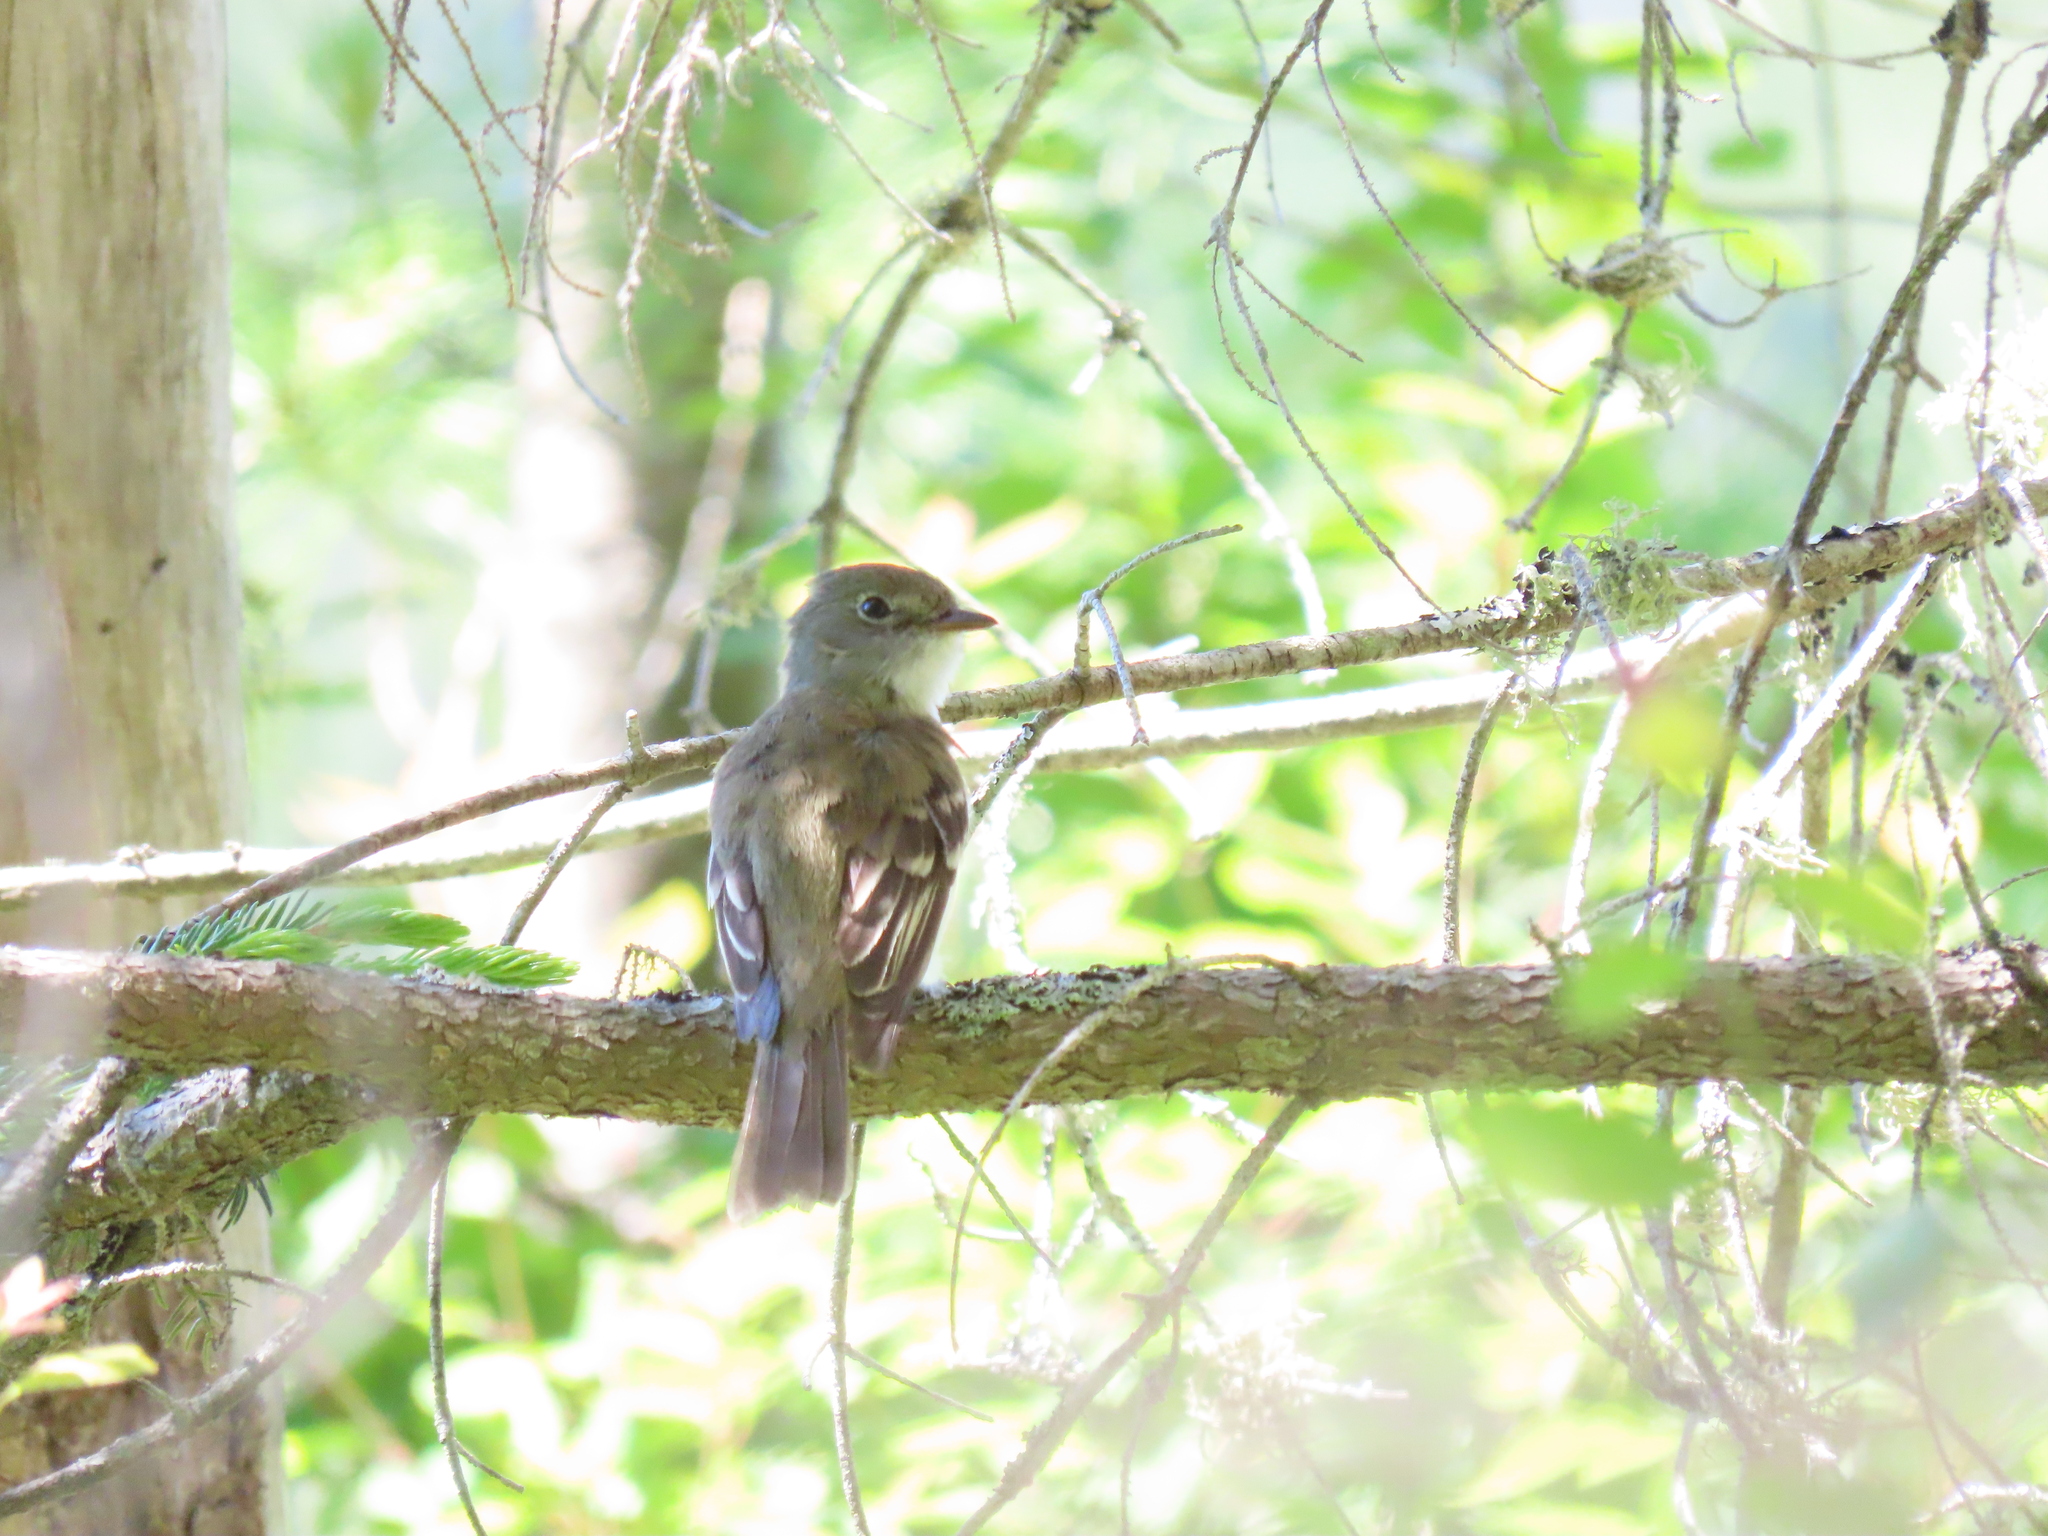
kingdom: Animalia
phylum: Chordata
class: Aves
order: Passeriformes
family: Tyrannidae
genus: Contopus
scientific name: Contopus virens
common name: Eastern wood-pewee
